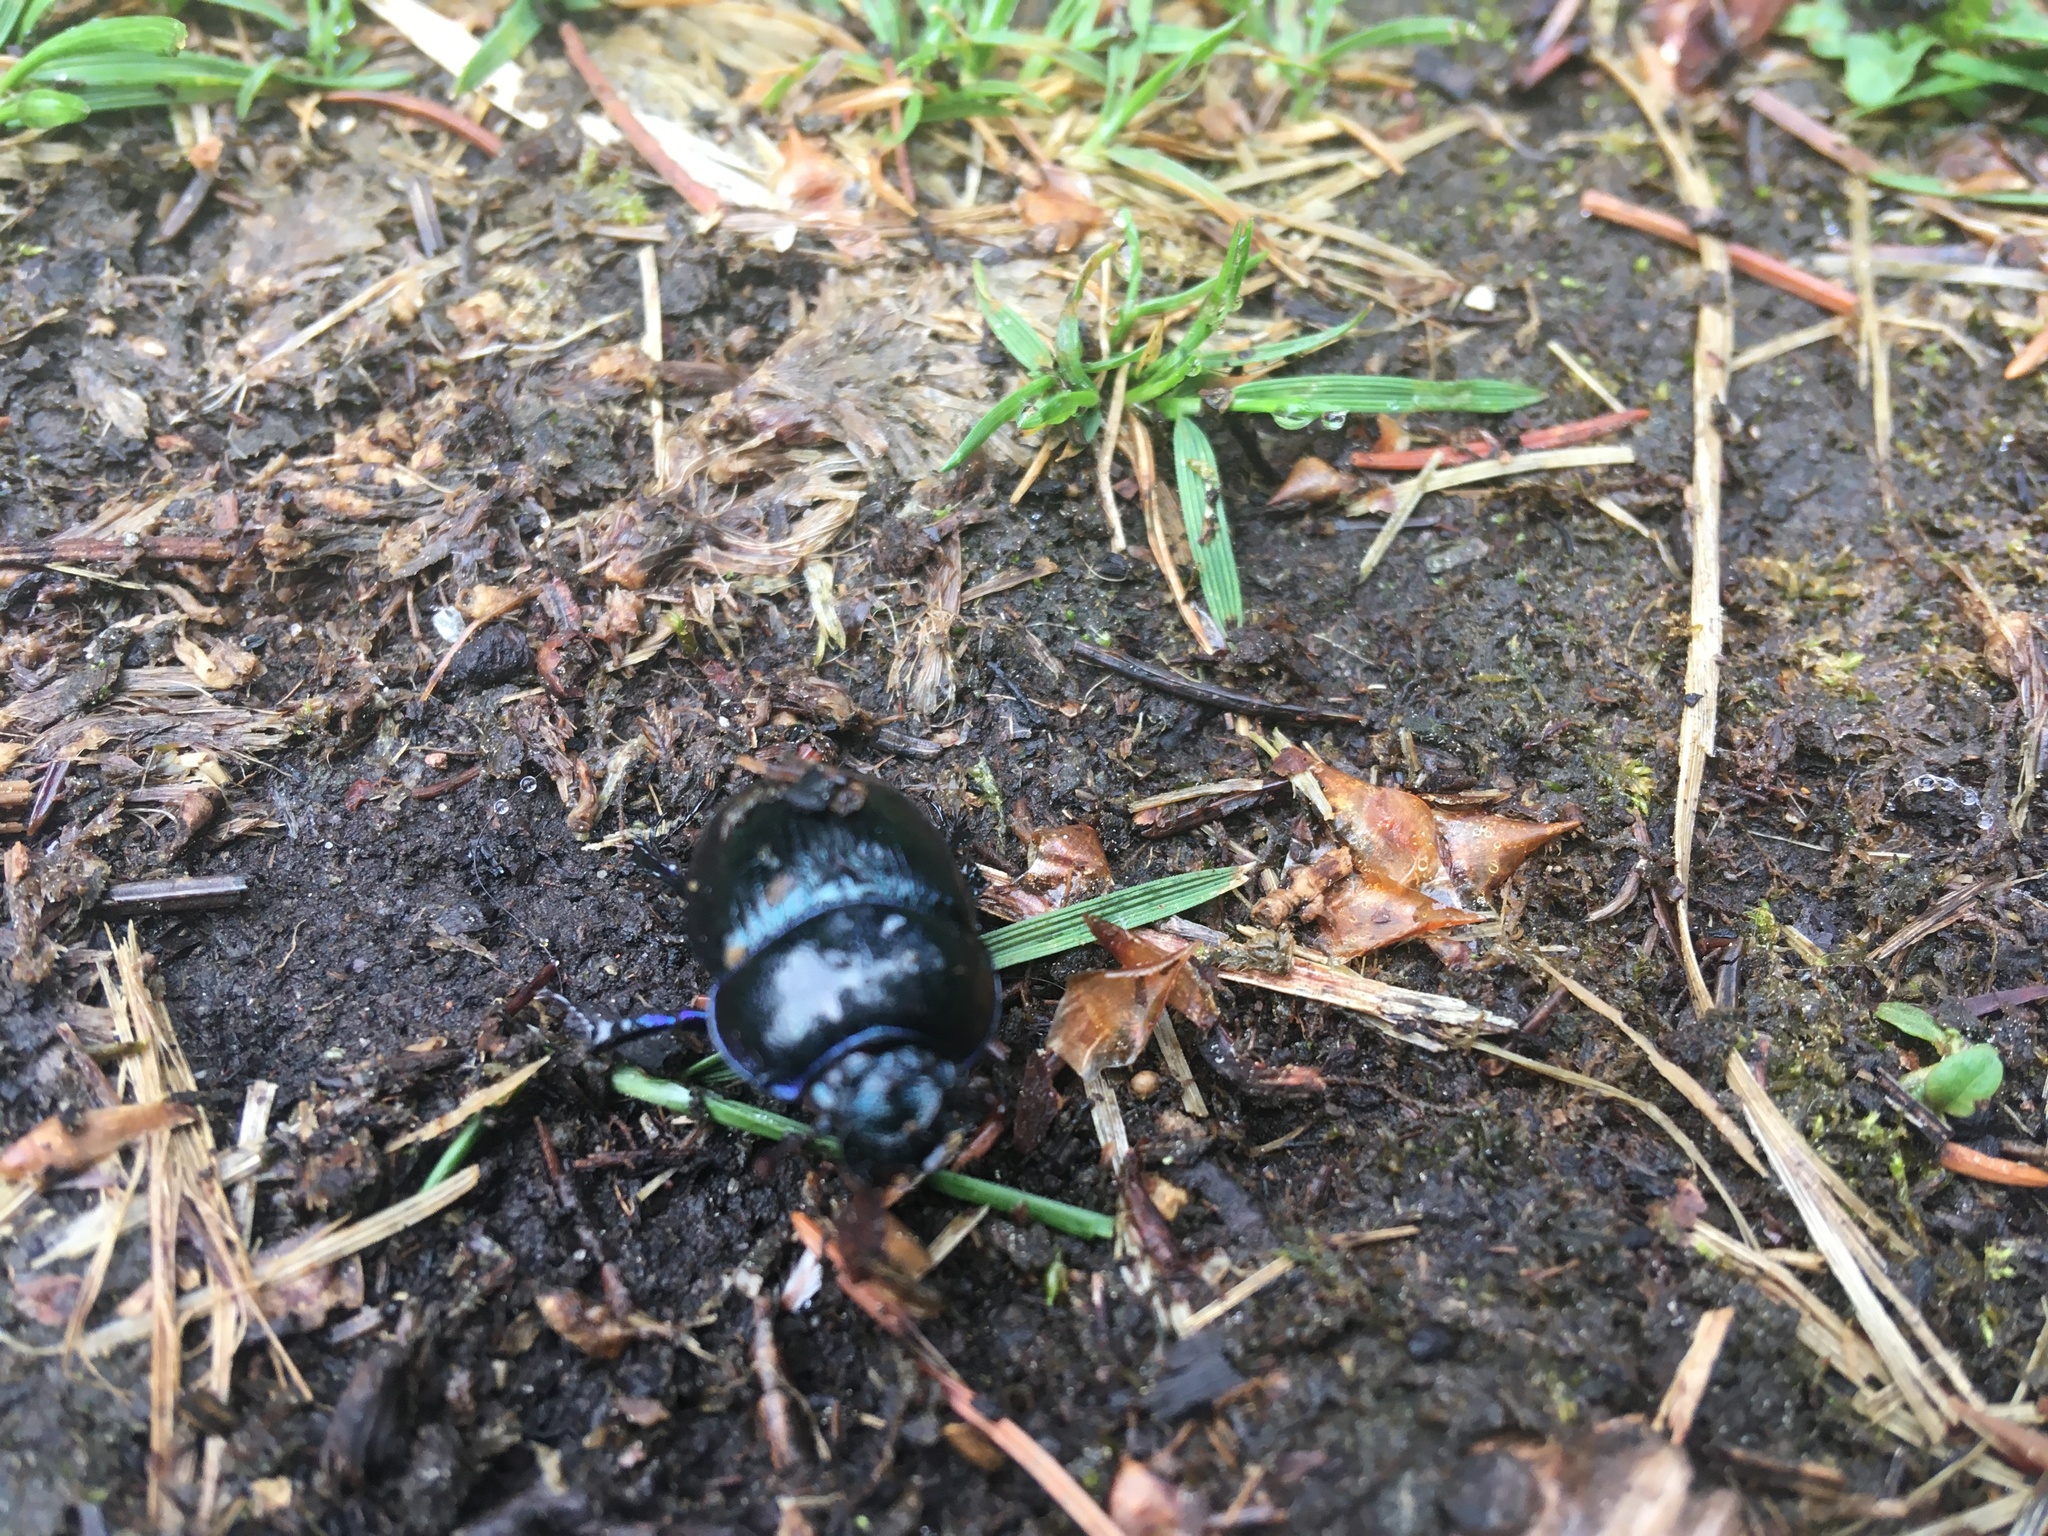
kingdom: Animalia
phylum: Arthropoda
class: Insecta
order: Coleoptera
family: Geotrupidae
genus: Anoplotrupes
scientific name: Anoplotrupes stercorosus
